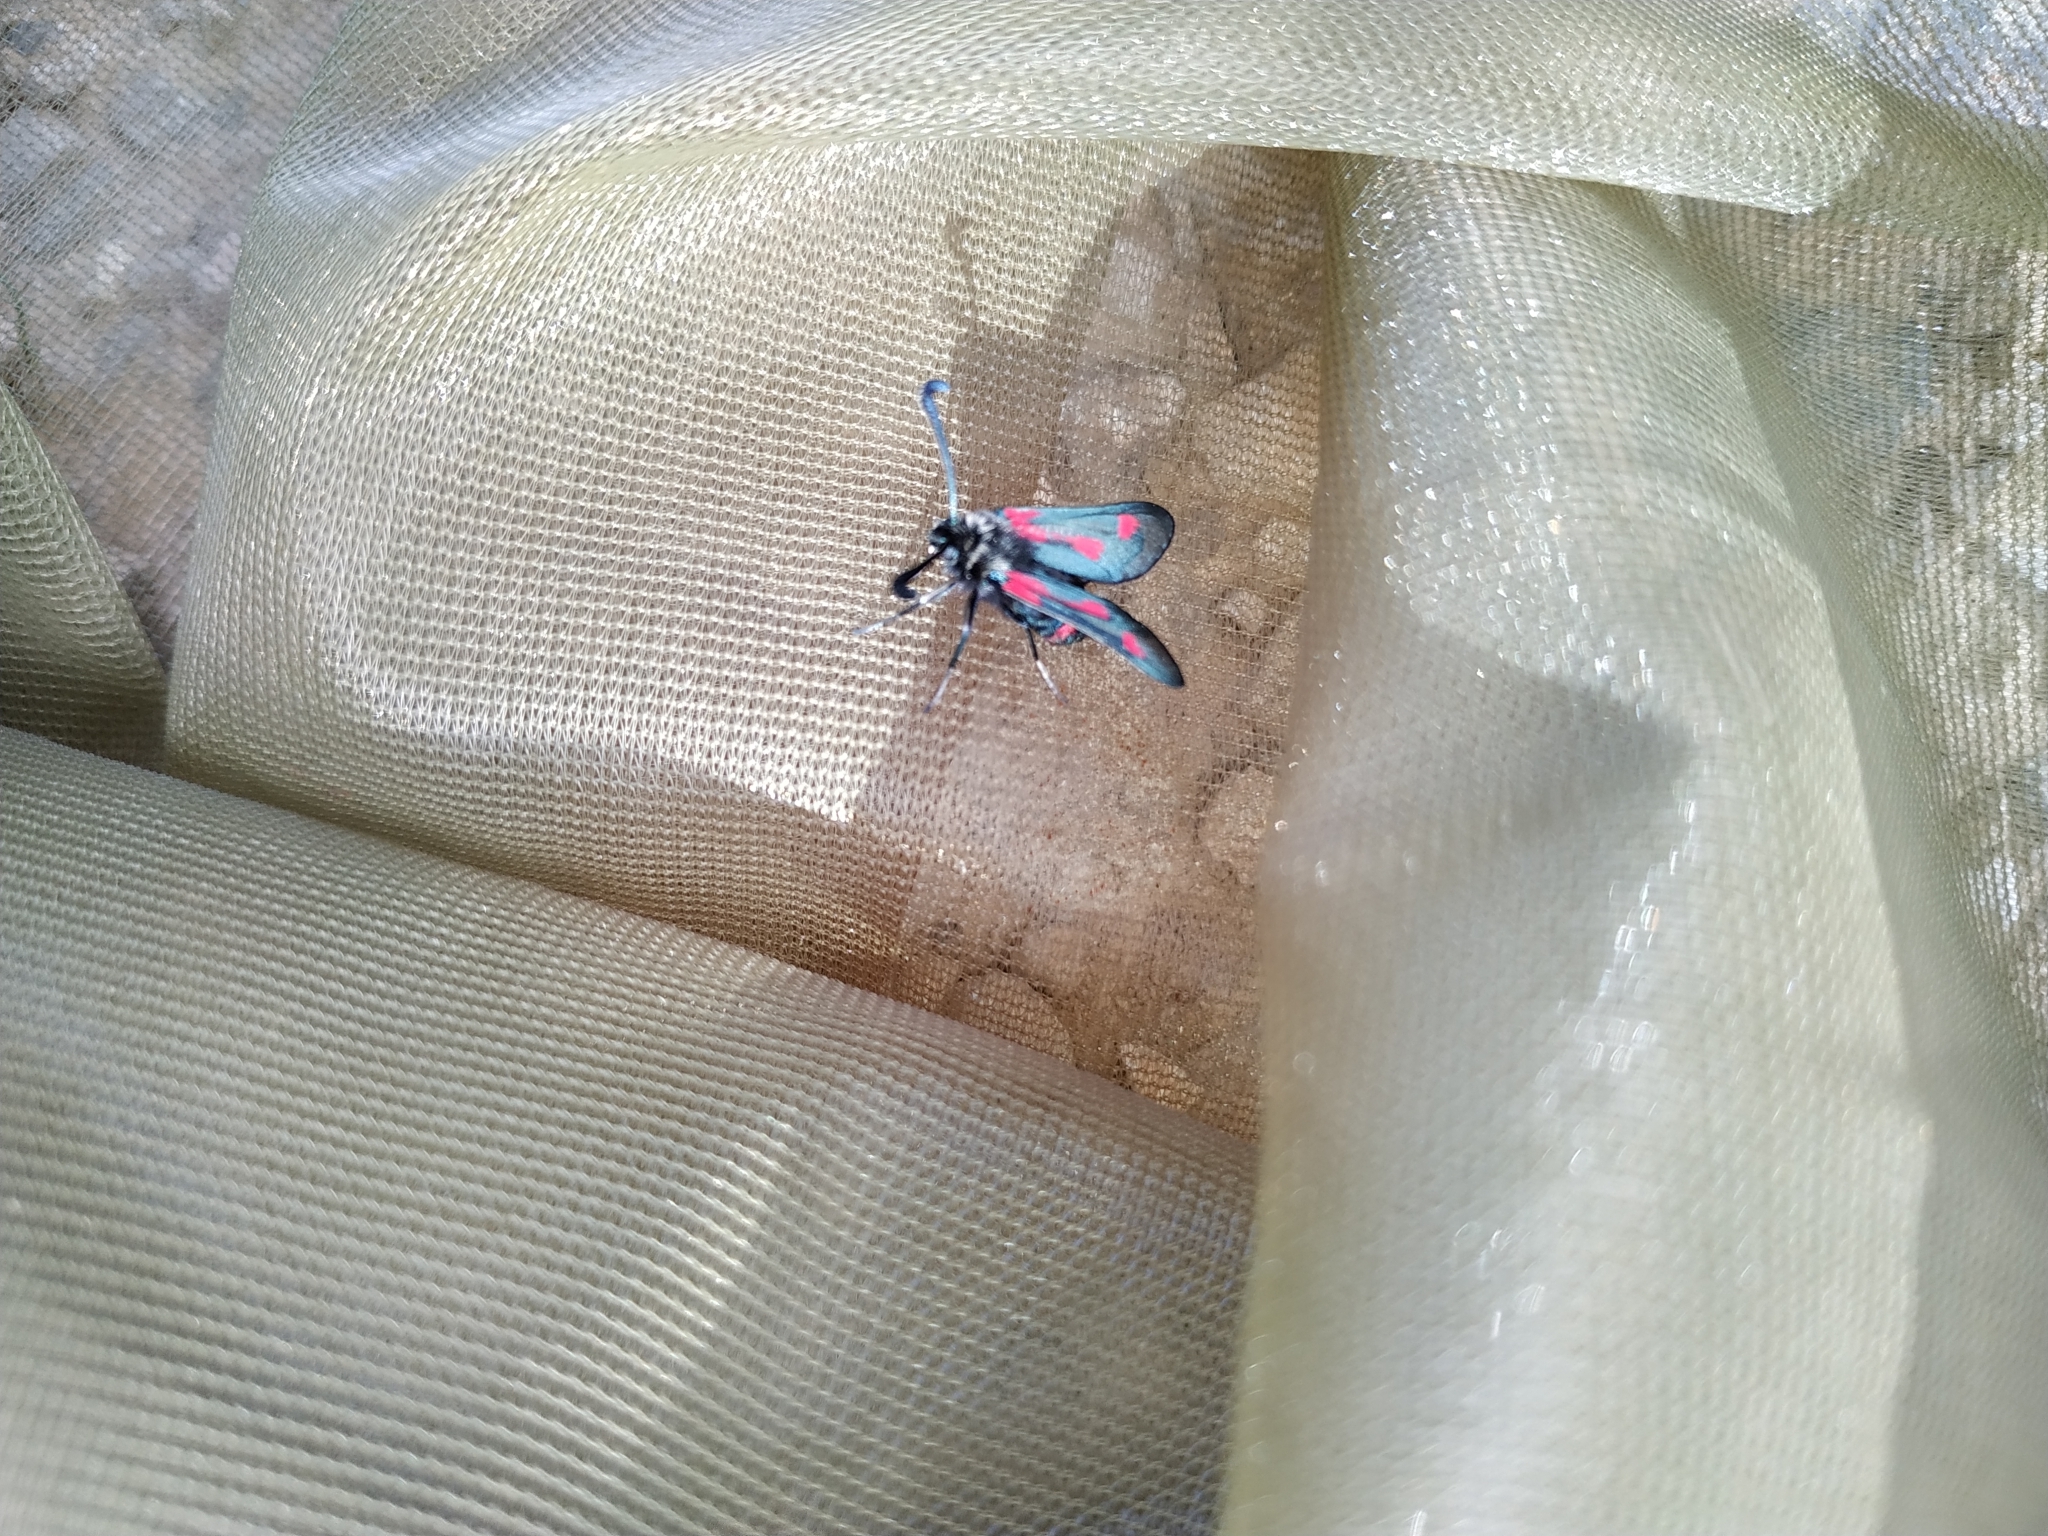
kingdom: Animalia
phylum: Arthropoda
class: Insecta
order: Lepidoptera
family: Zygaenidae
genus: Zygaena
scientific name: Zygaena sarpedon
